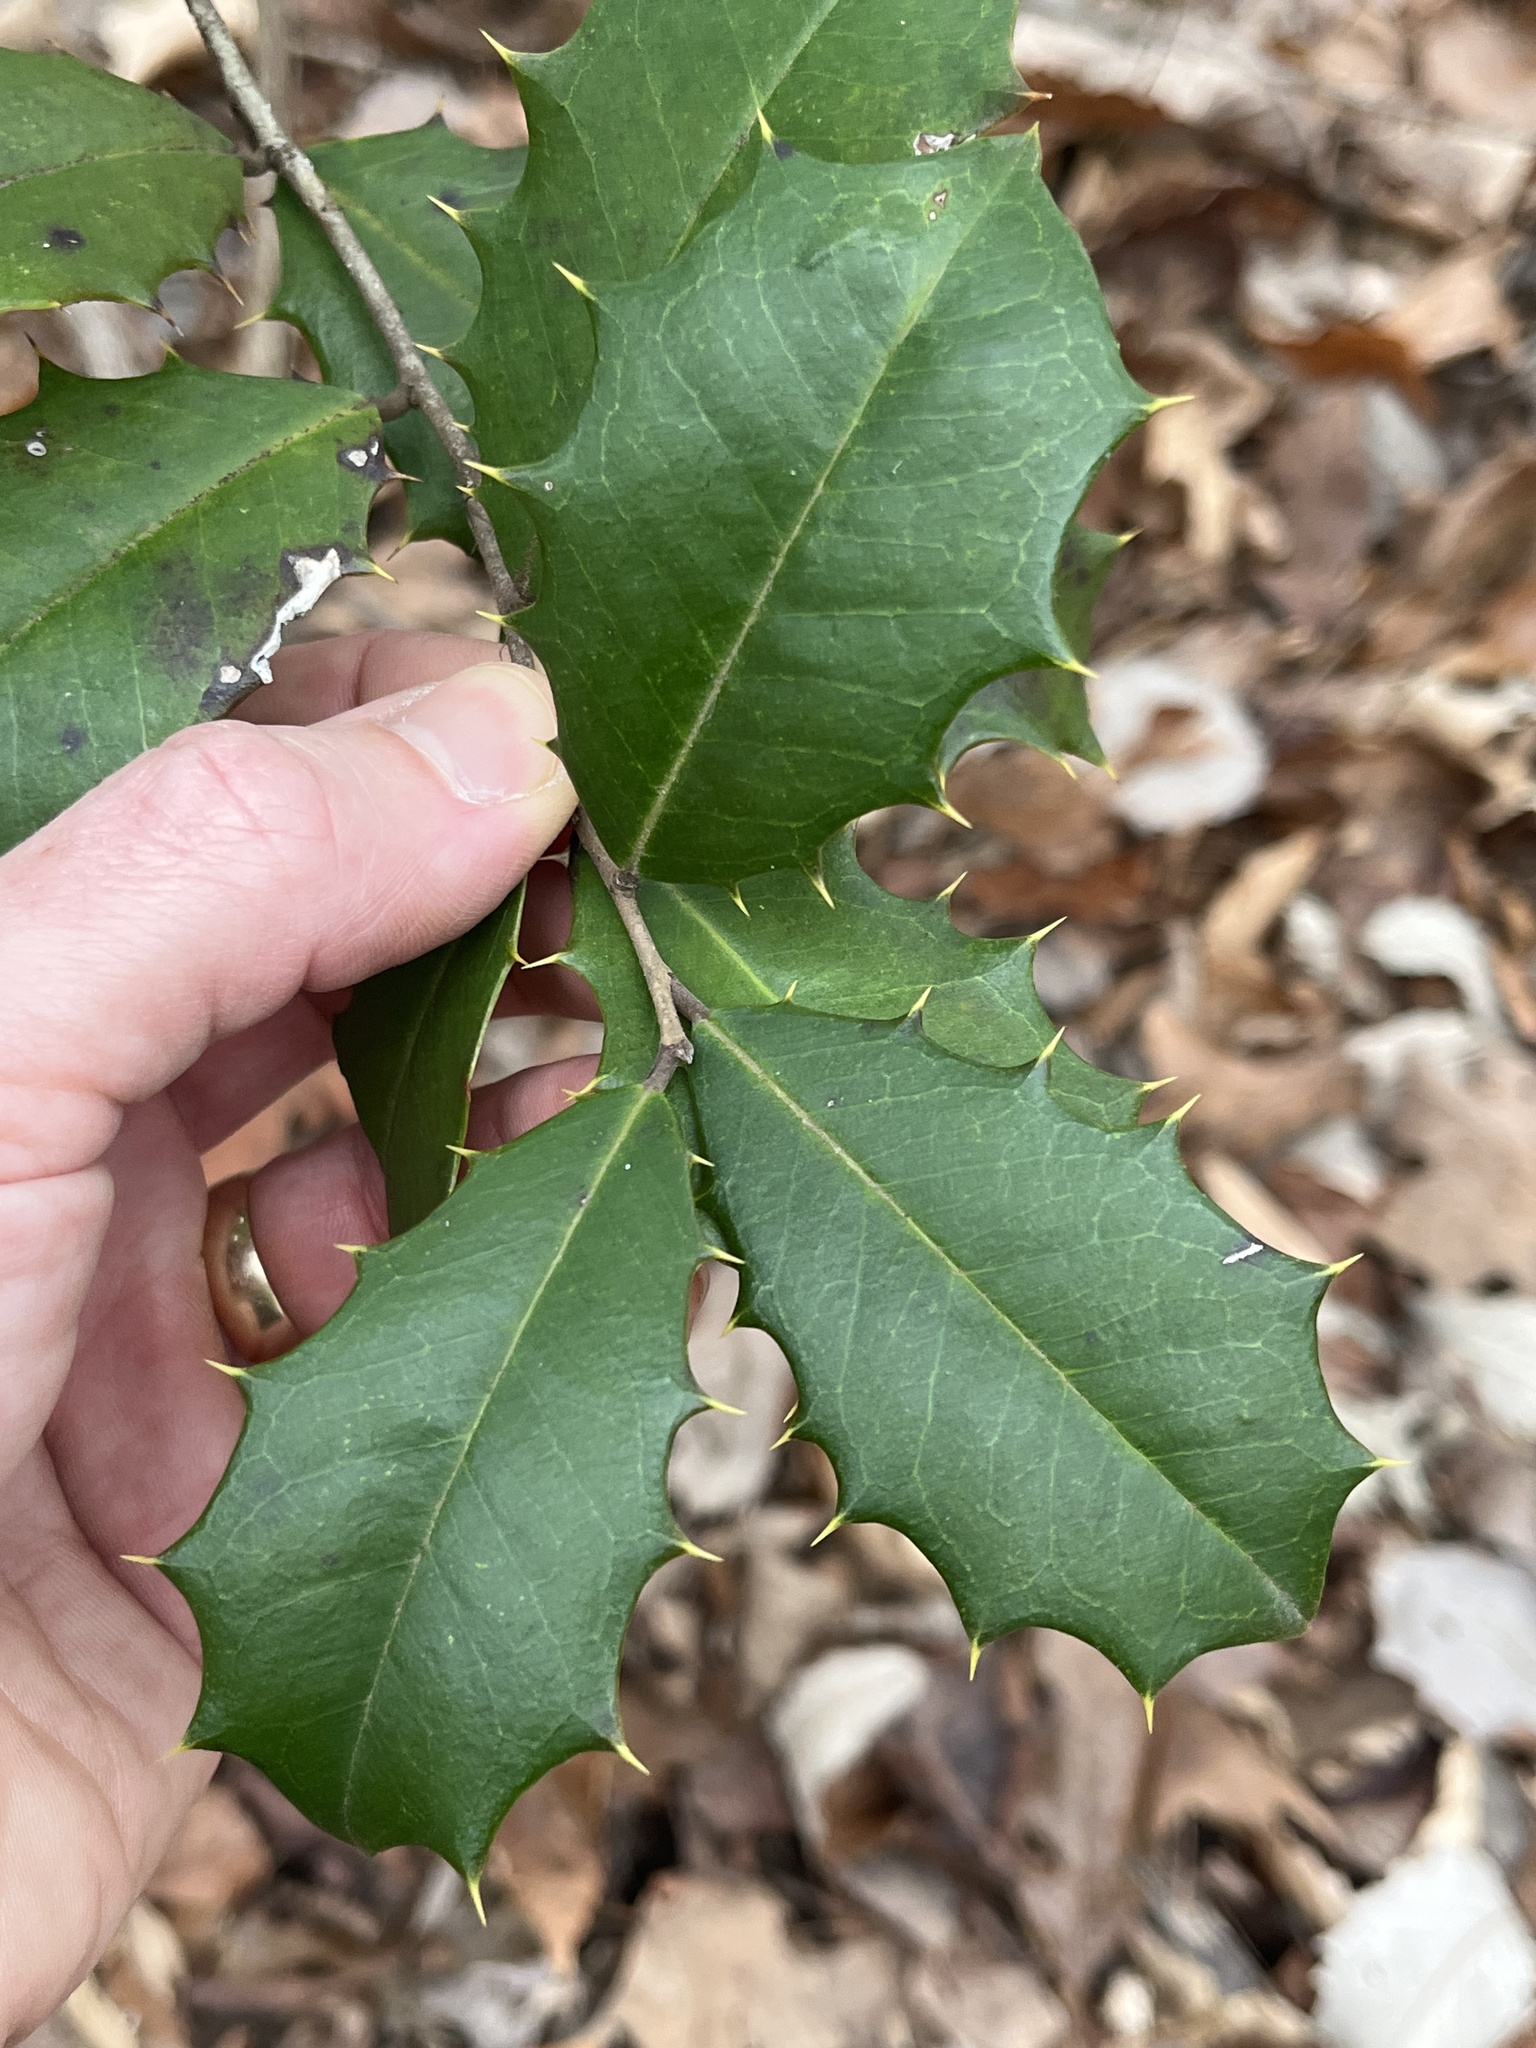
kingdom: Plantae
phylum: Tracheophyta
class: Magnoliopsida
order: Aquifoliales
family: Aquifoliaceae
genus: Ilex
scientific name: Ilex opaca
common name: American holly
